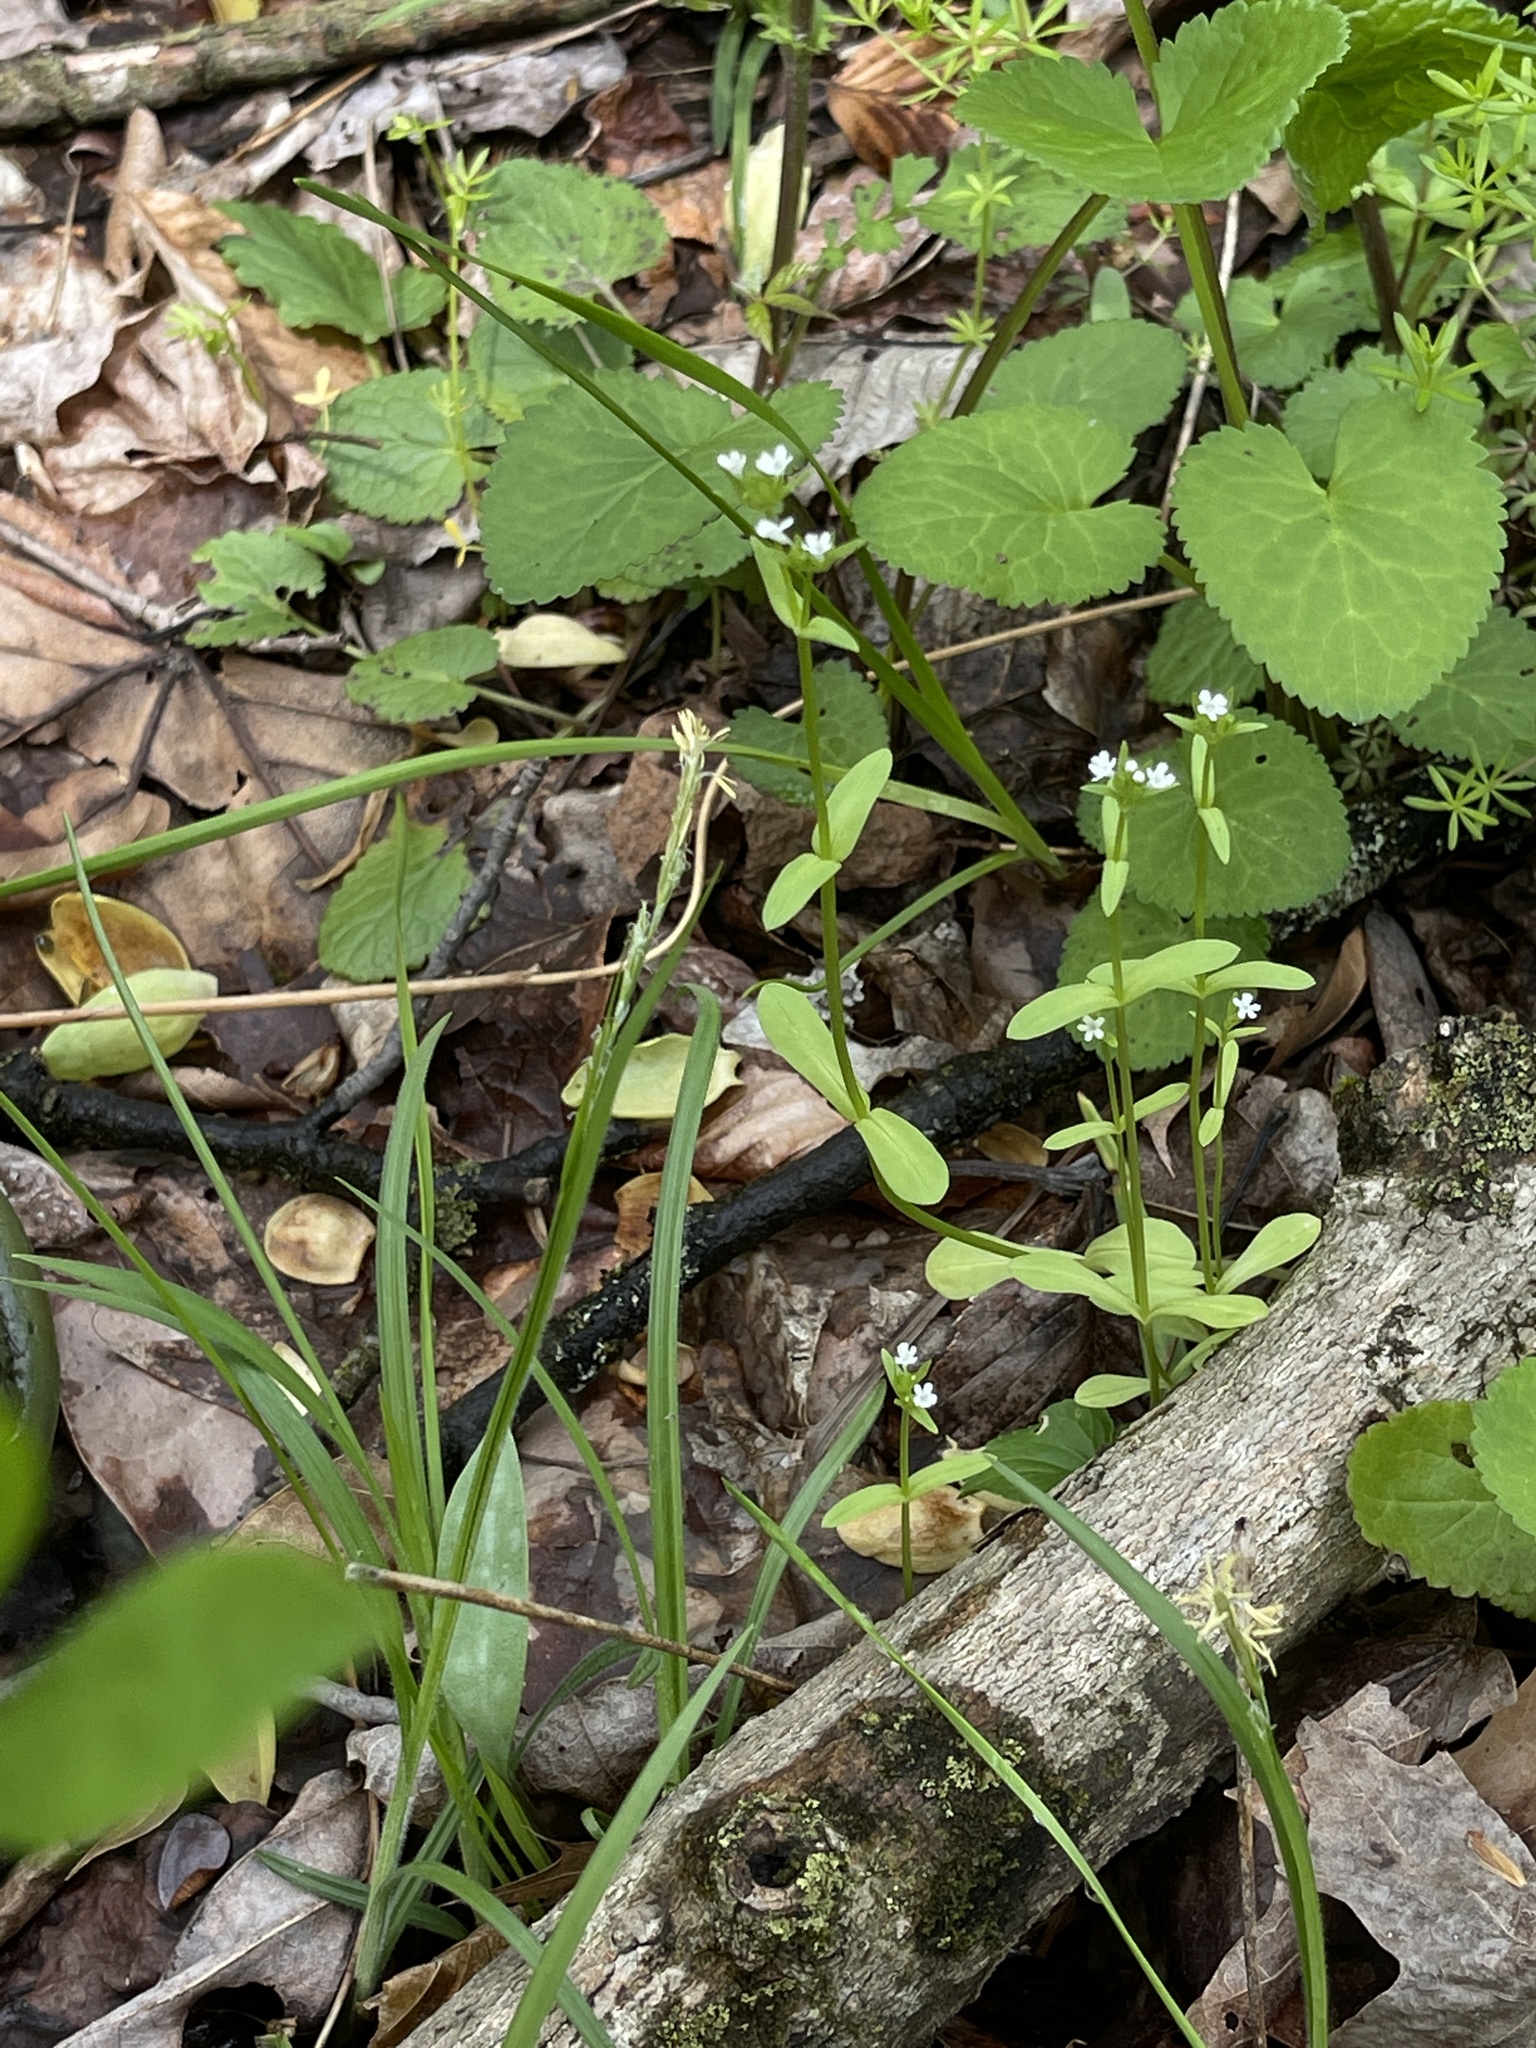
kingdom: Plantae
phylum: Tracheophyta
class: Magnoliopsida
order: Dipsacales
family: Caprifoliaceae
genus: Valerianella
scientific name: Valerianella umbilicata
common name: Wood's cornsalad
